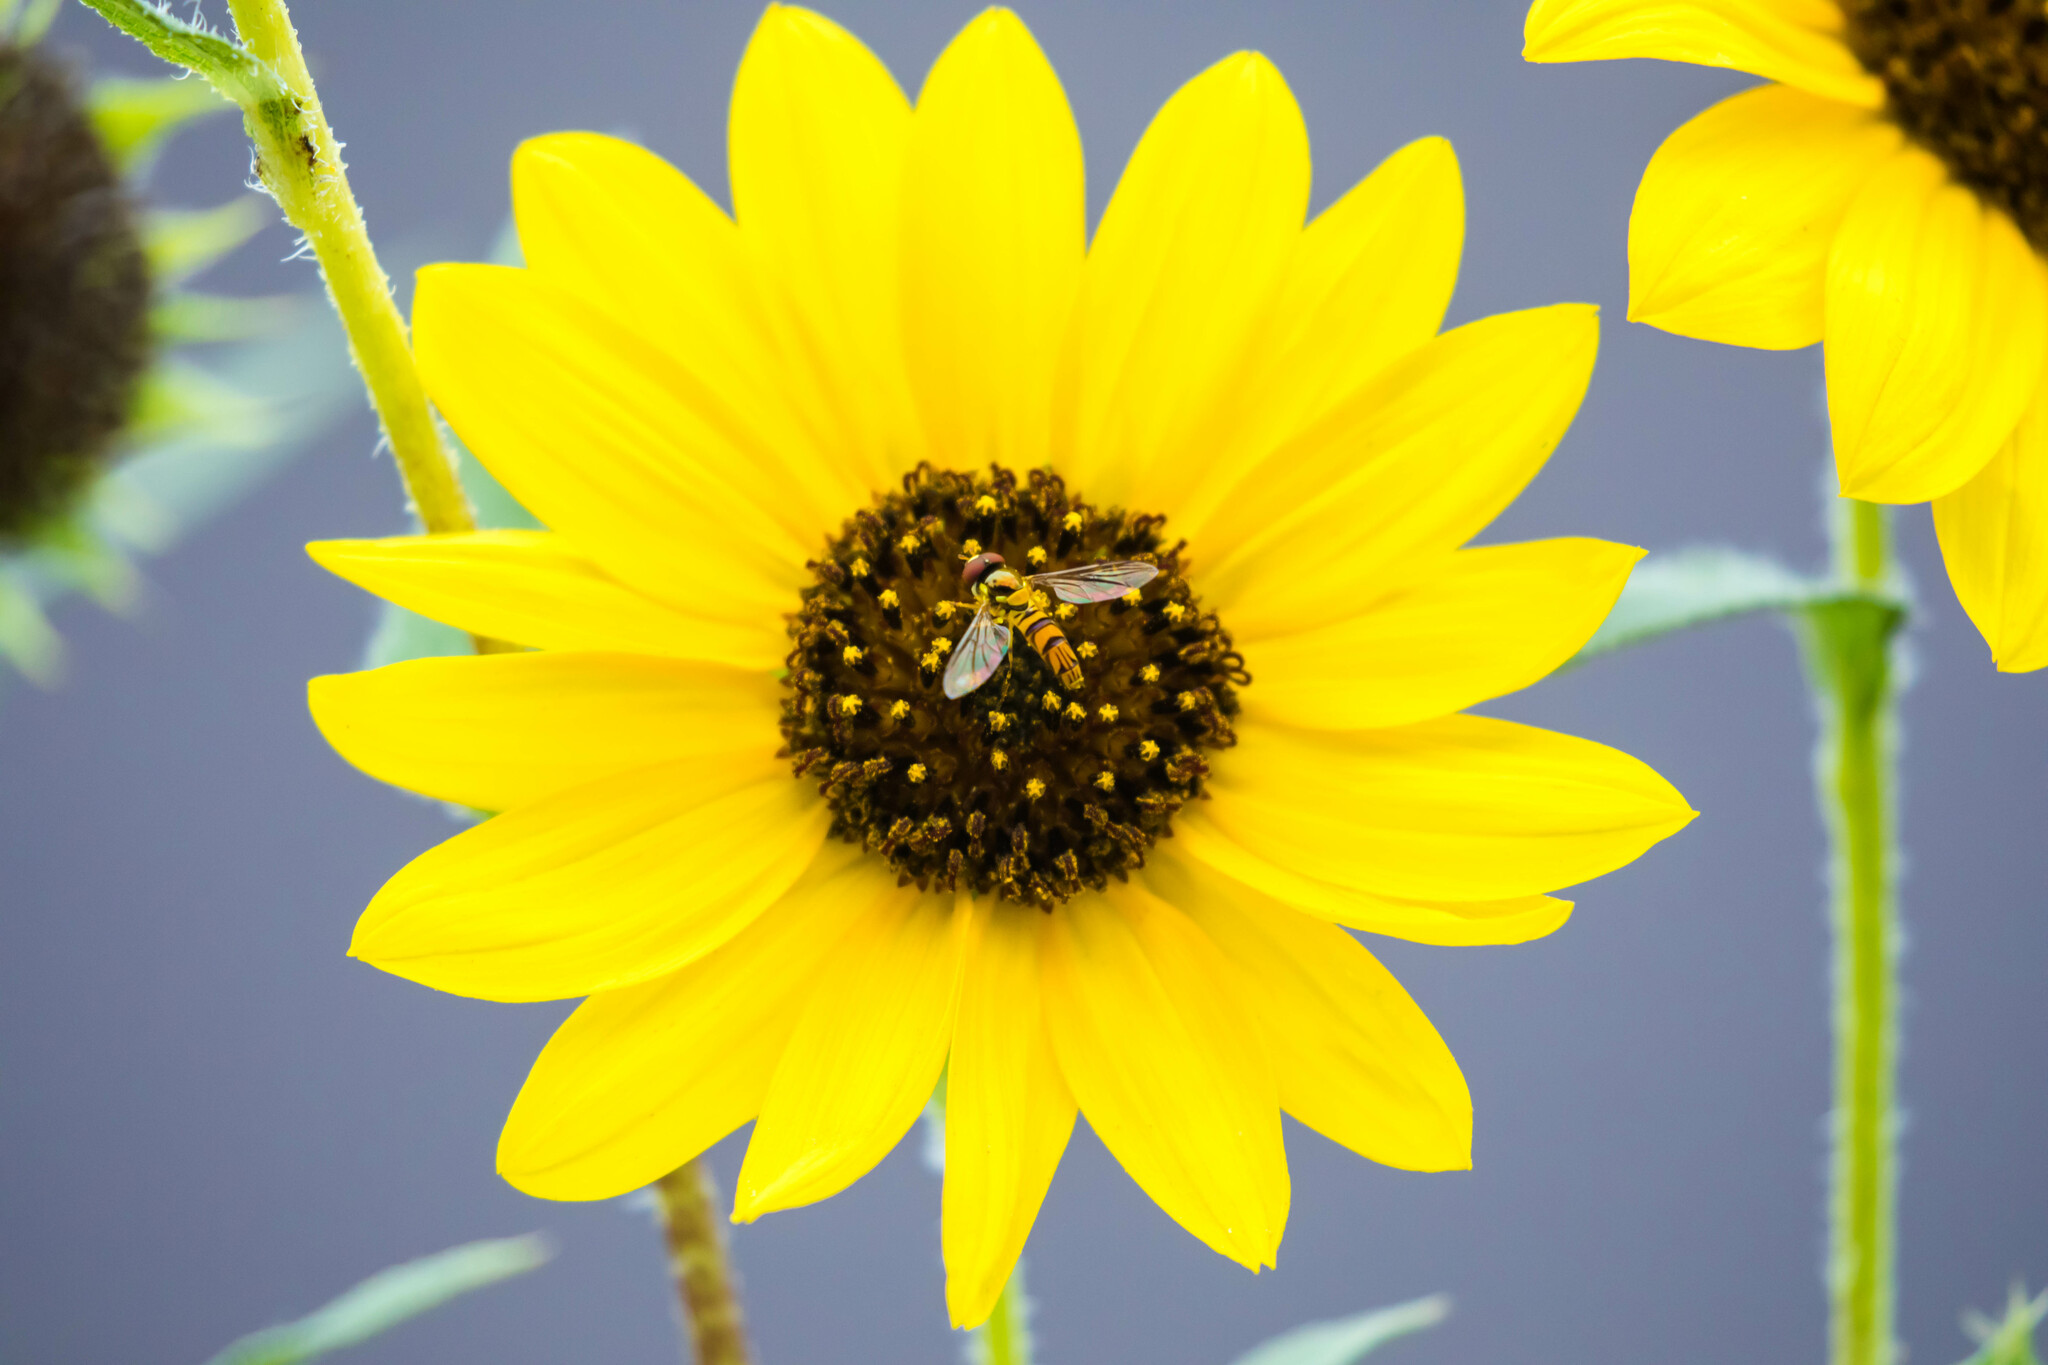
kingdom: Animalia
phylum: Arthropoda
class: Insecta
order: Diptera
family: Syrphidae
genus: Allograpta
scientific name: Allograpta obliqua
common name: Common oblique syrphid
